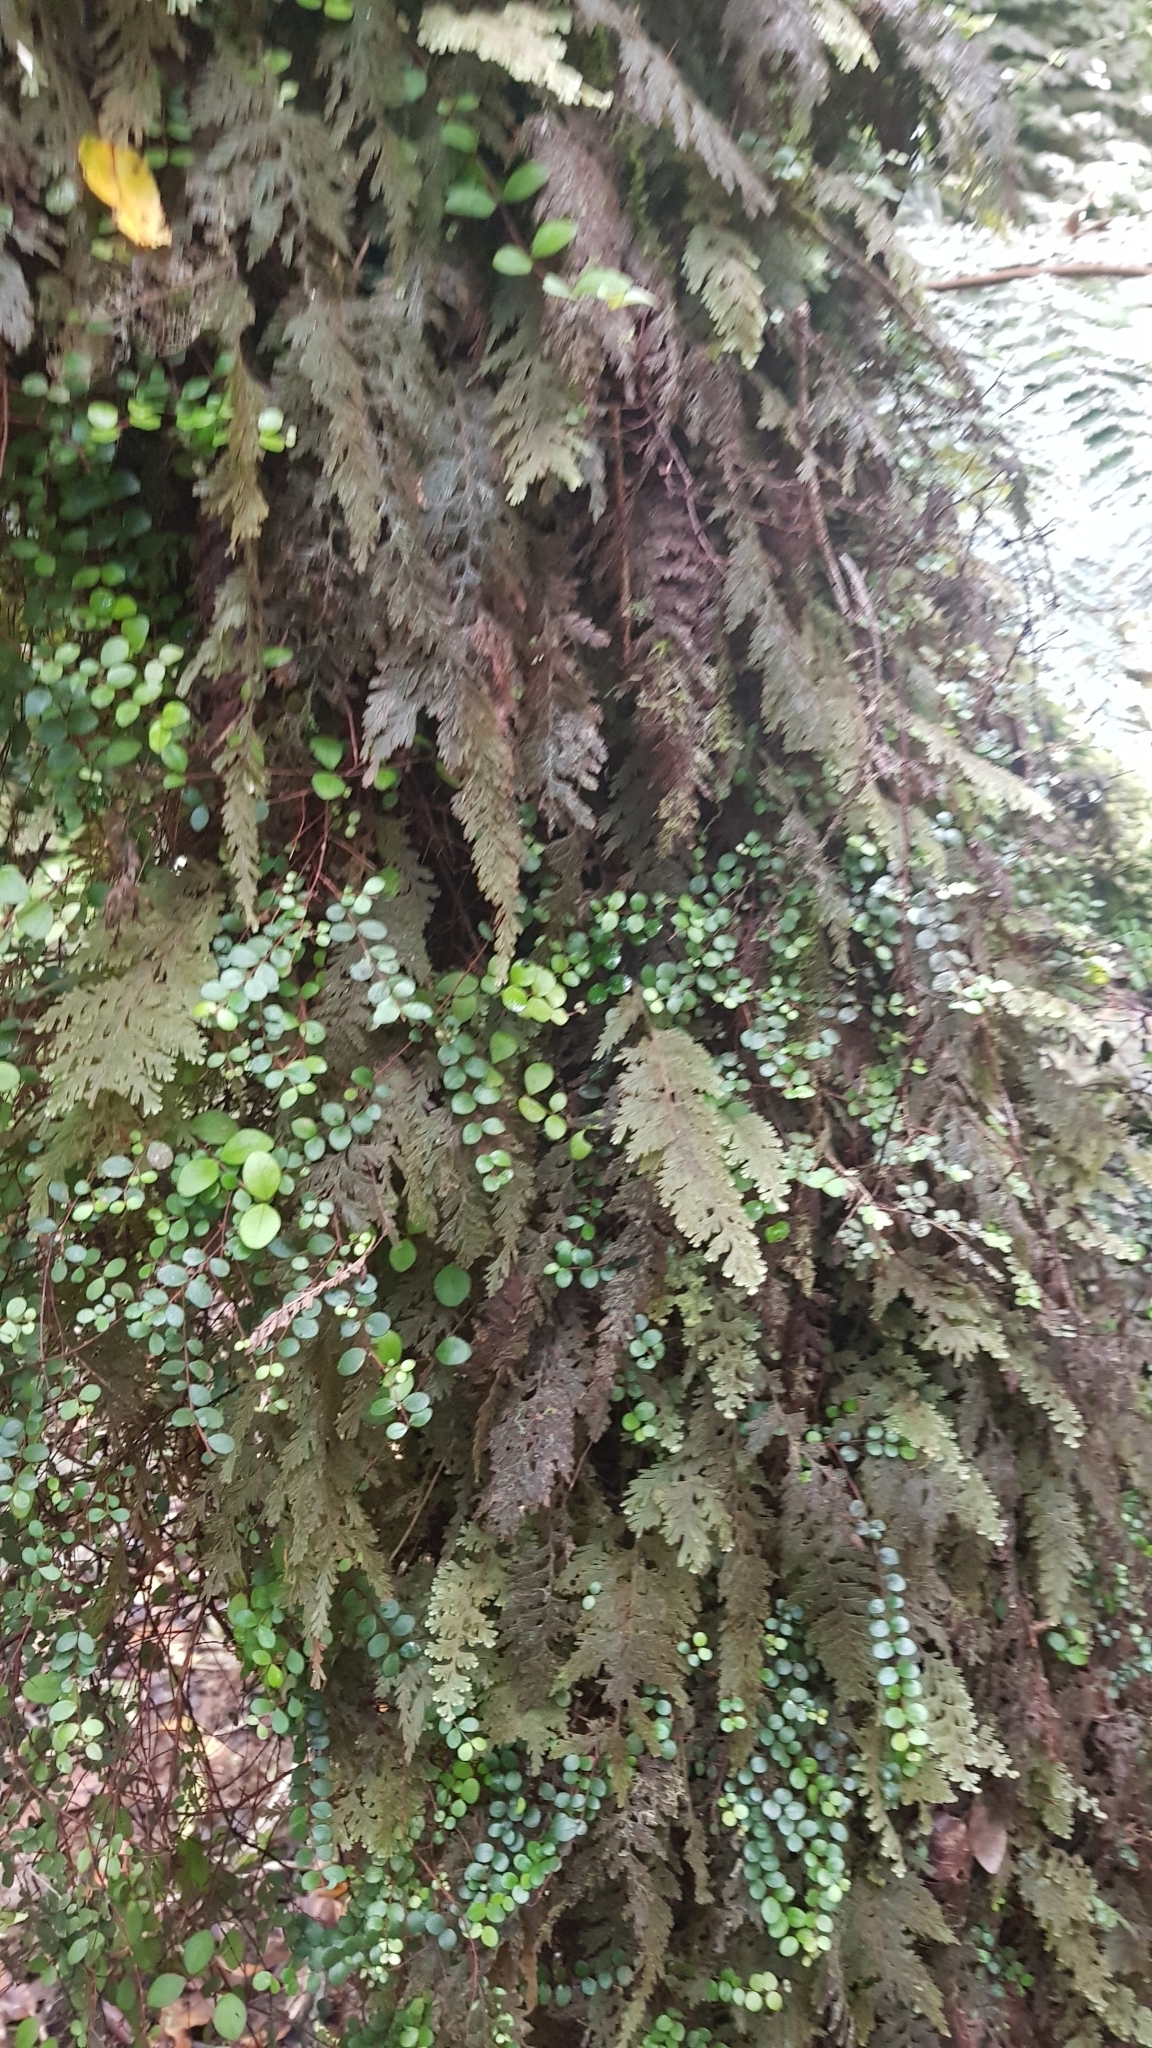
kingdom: Plantae
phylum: Tracheophyta
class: Polypodiopsida
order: Hymenophyllales
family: Hymenophyllaceae
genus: Hymenophyllum
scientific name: Hymenophyllum frankliniae
